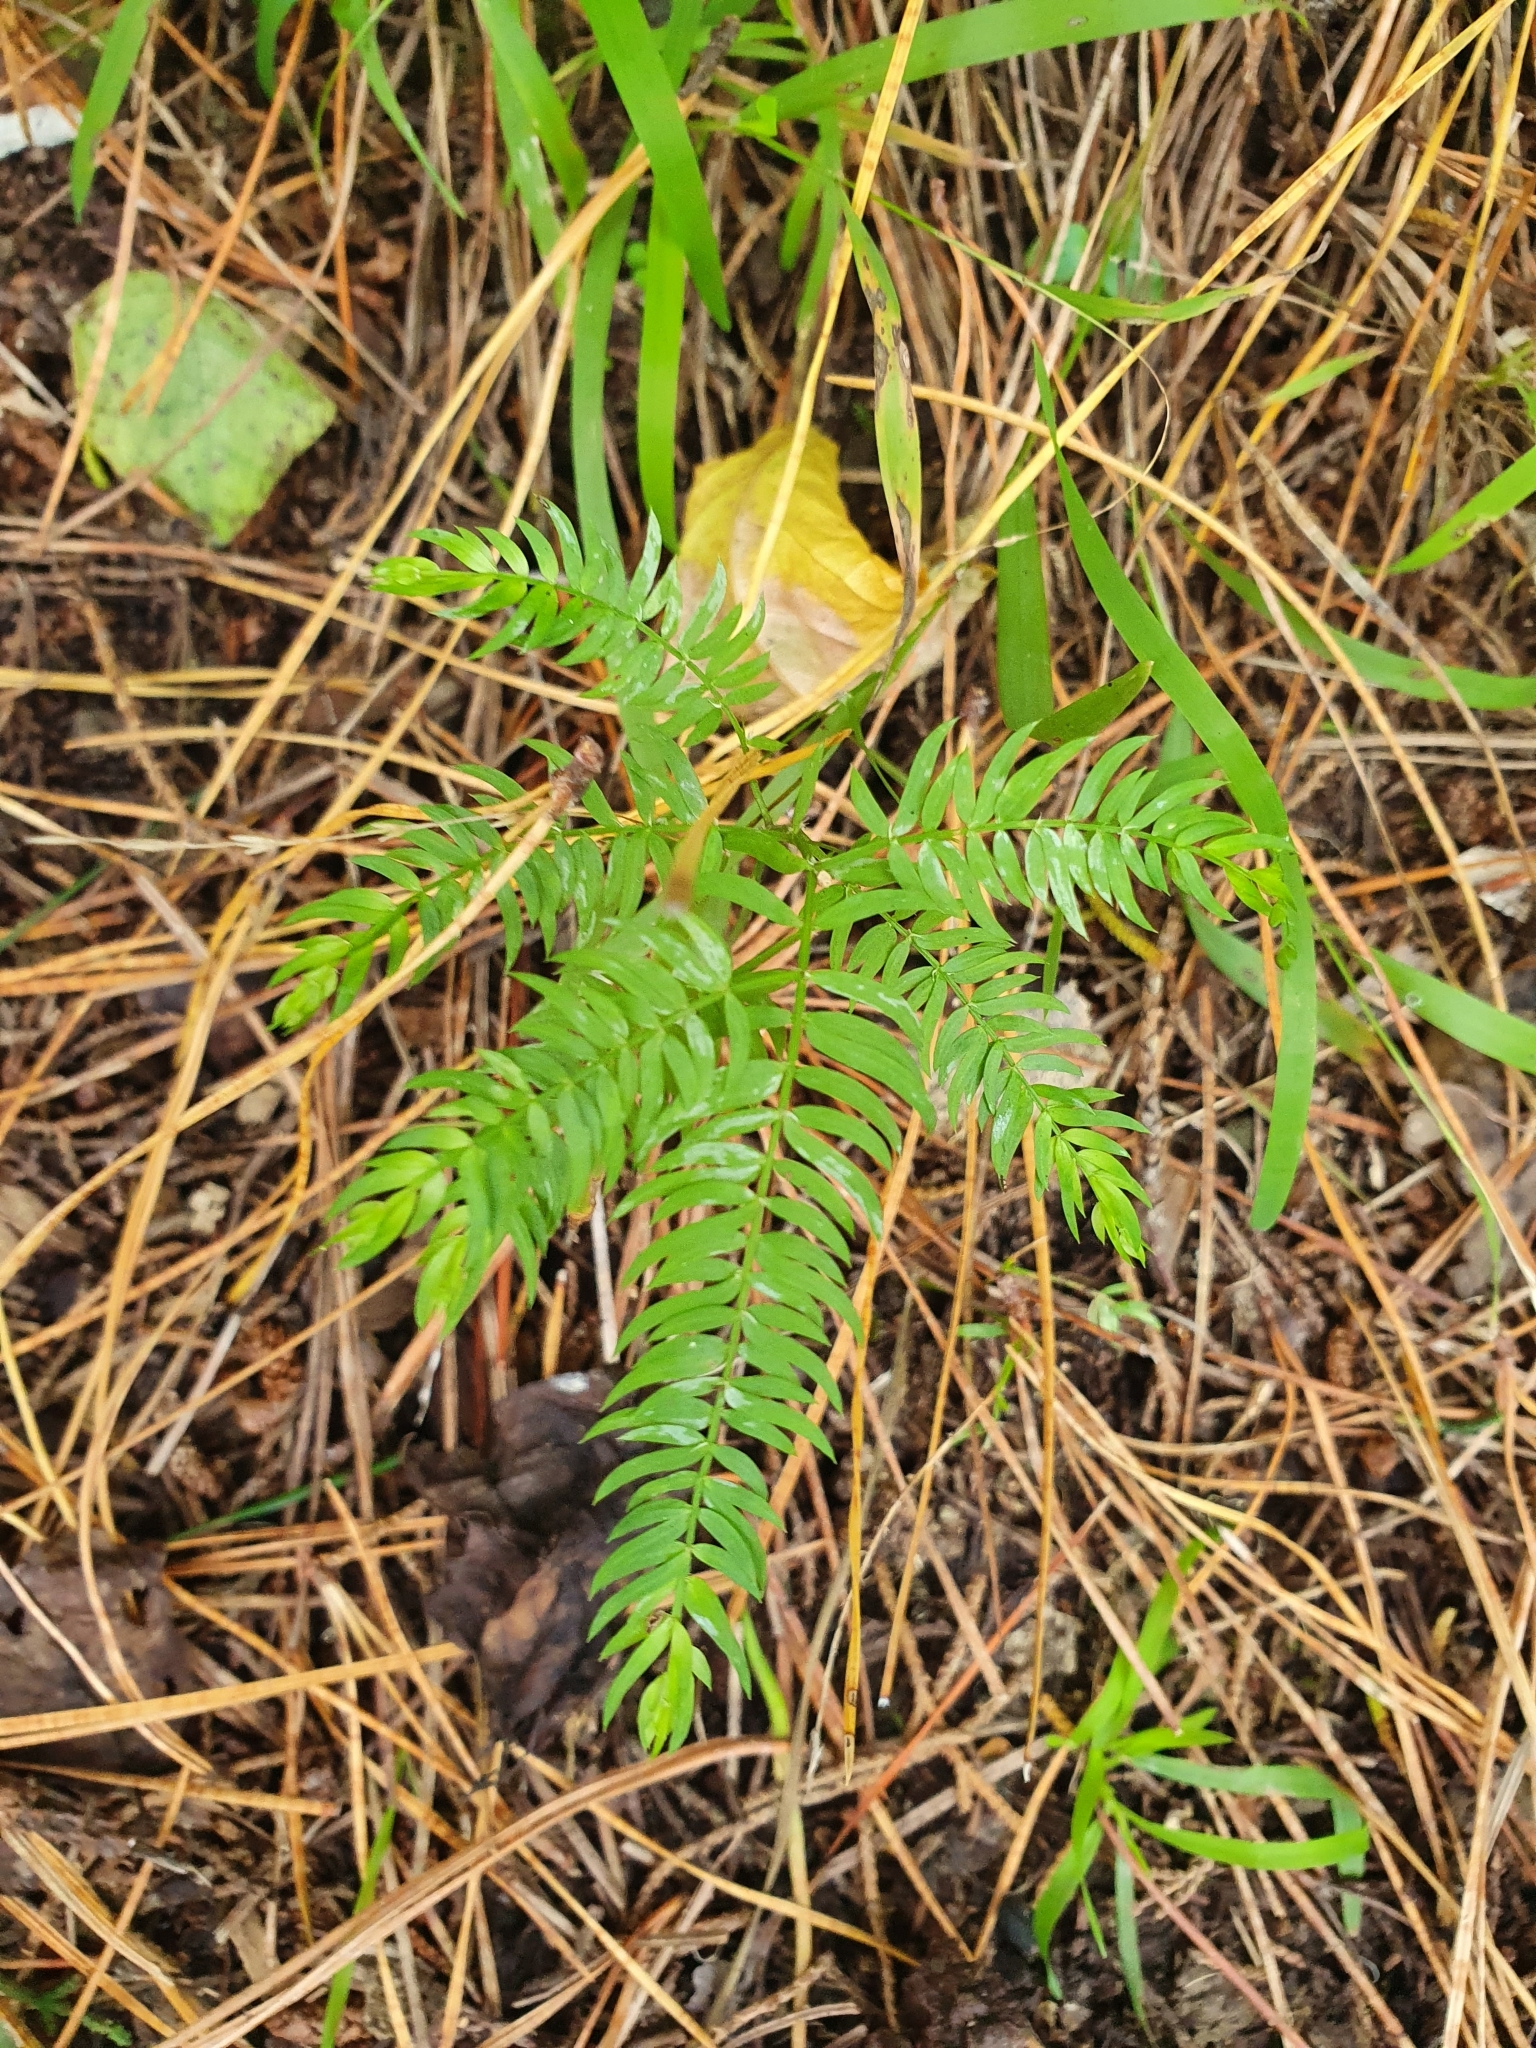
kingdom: Plantae
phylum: Tracheophyta
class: Liliopsida
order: Asparagales
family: Asparagaceae
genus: Asparagus
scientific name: Asparagus scandens
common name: Asparagus-fern
